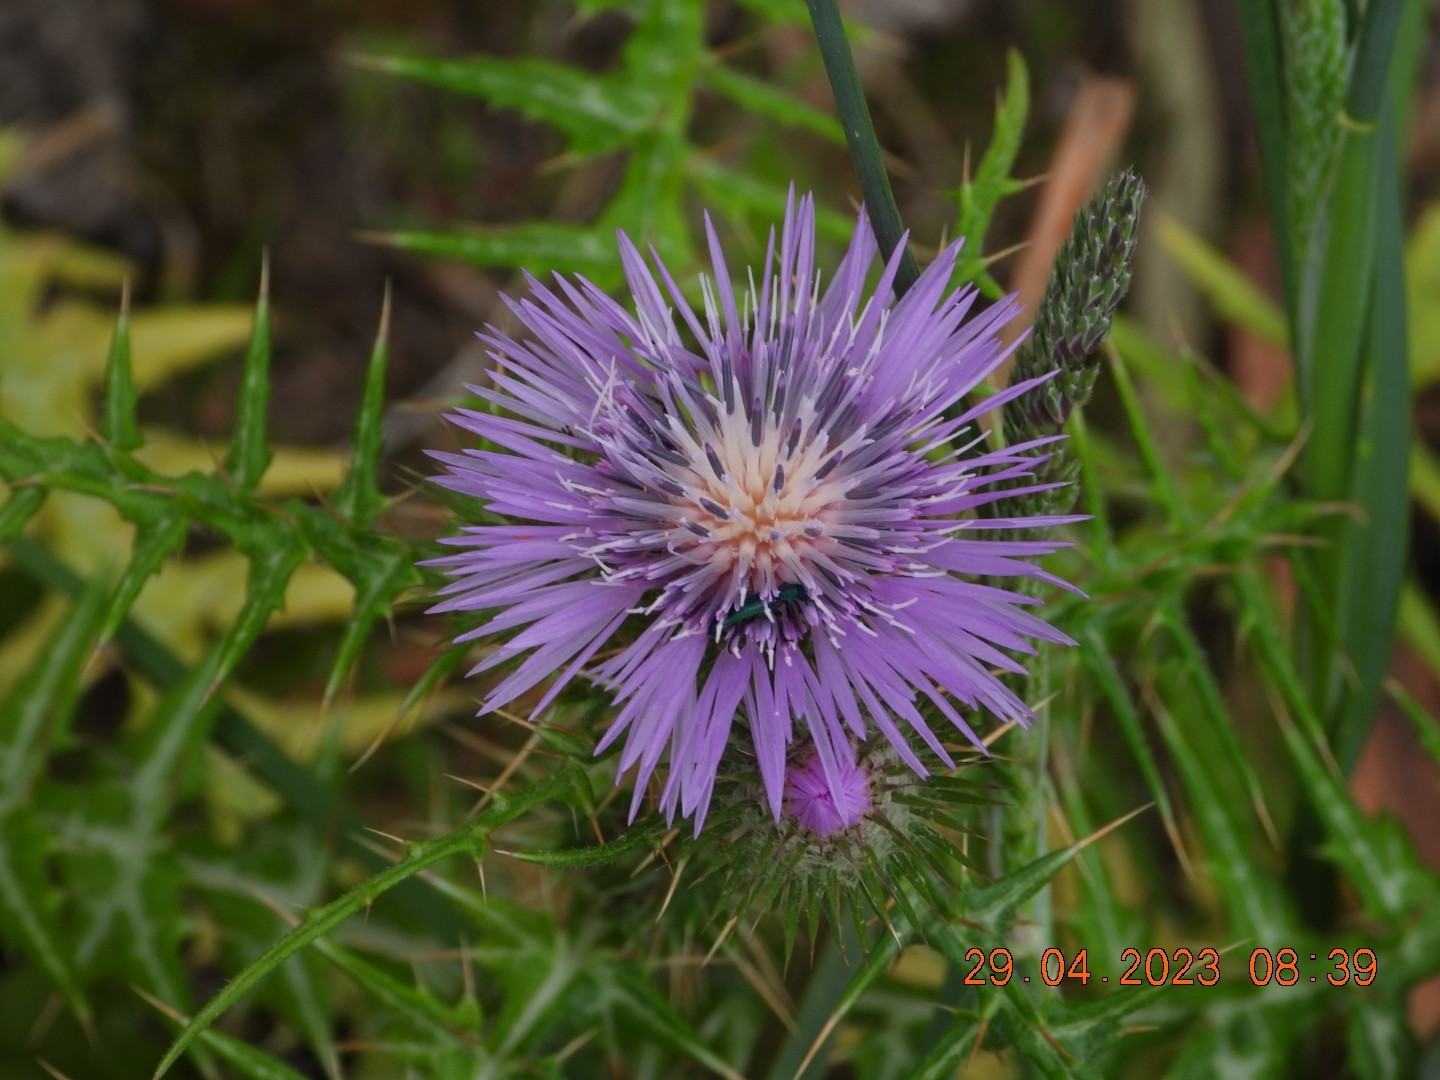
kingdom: Plantae
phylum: Tracheophyta
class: Magnoliopsida
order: Asterales
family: Asteraceae
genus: Galactites
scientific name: Galactites tomentosa
